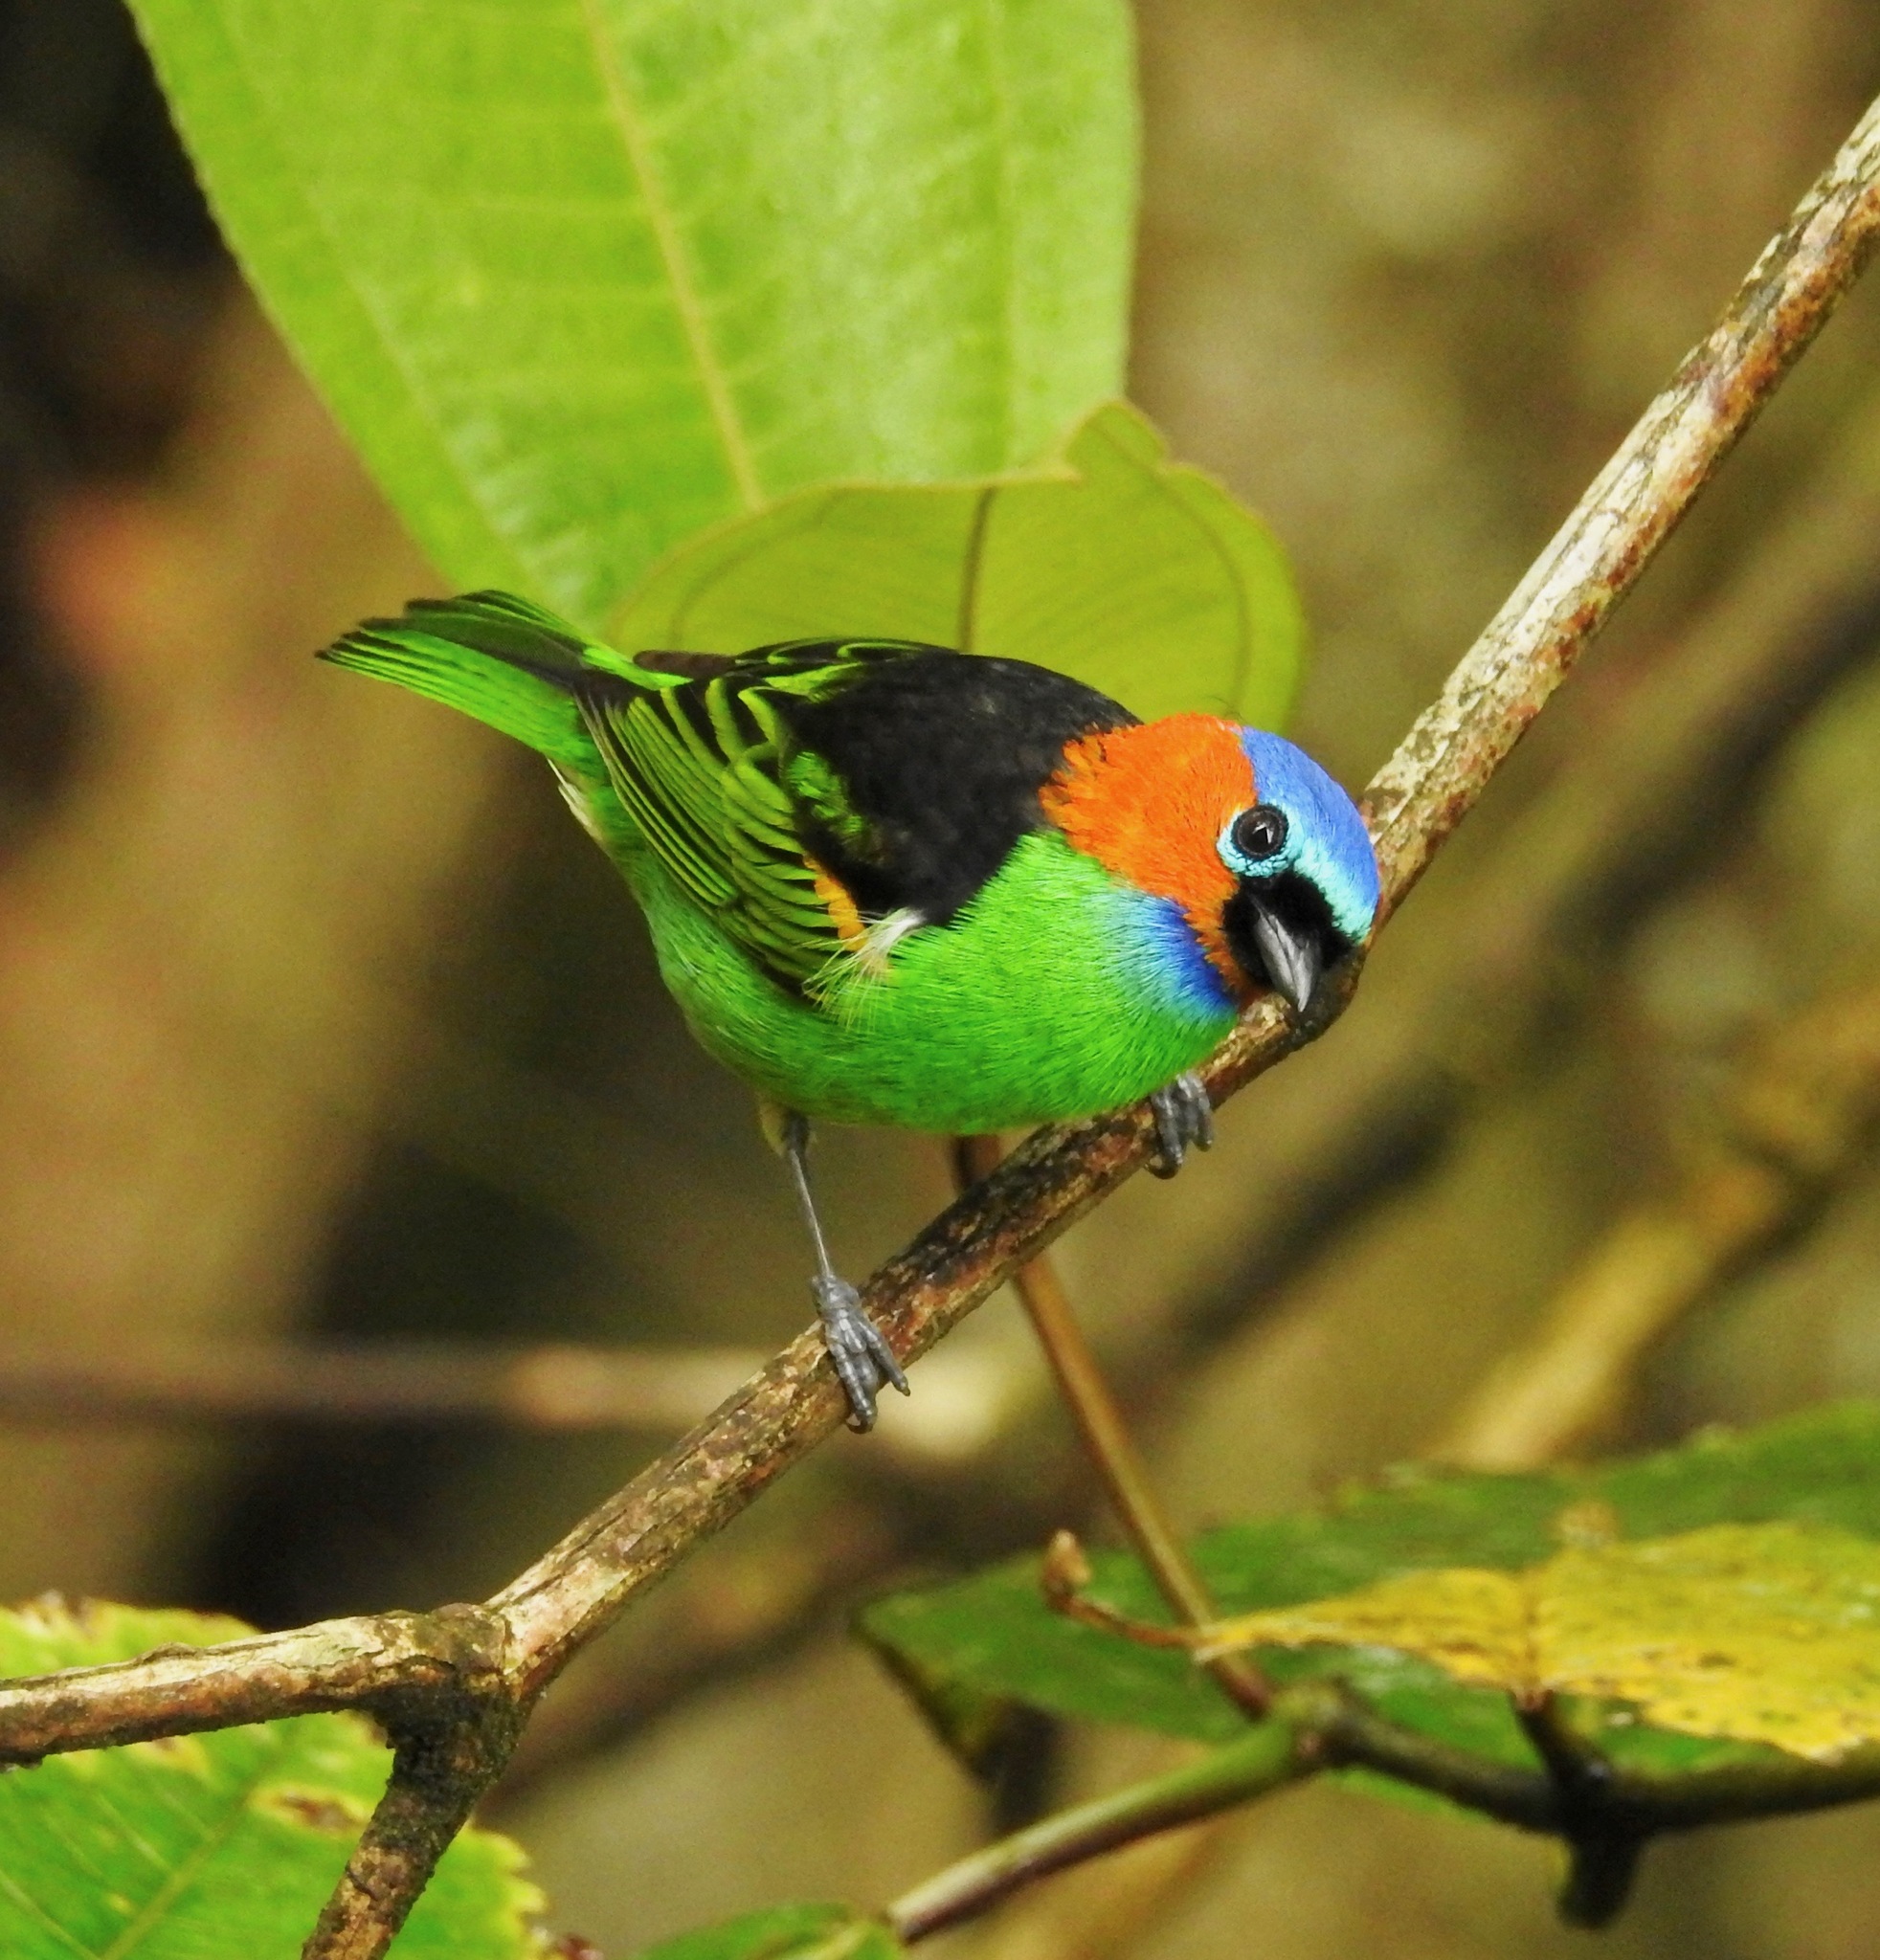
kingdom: Animalia
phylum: Chordata
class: Aves
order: Passeriformes
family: Thraupidae
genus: Tangara
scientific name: Tangara cyanocephala
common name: Red-necked tanager
